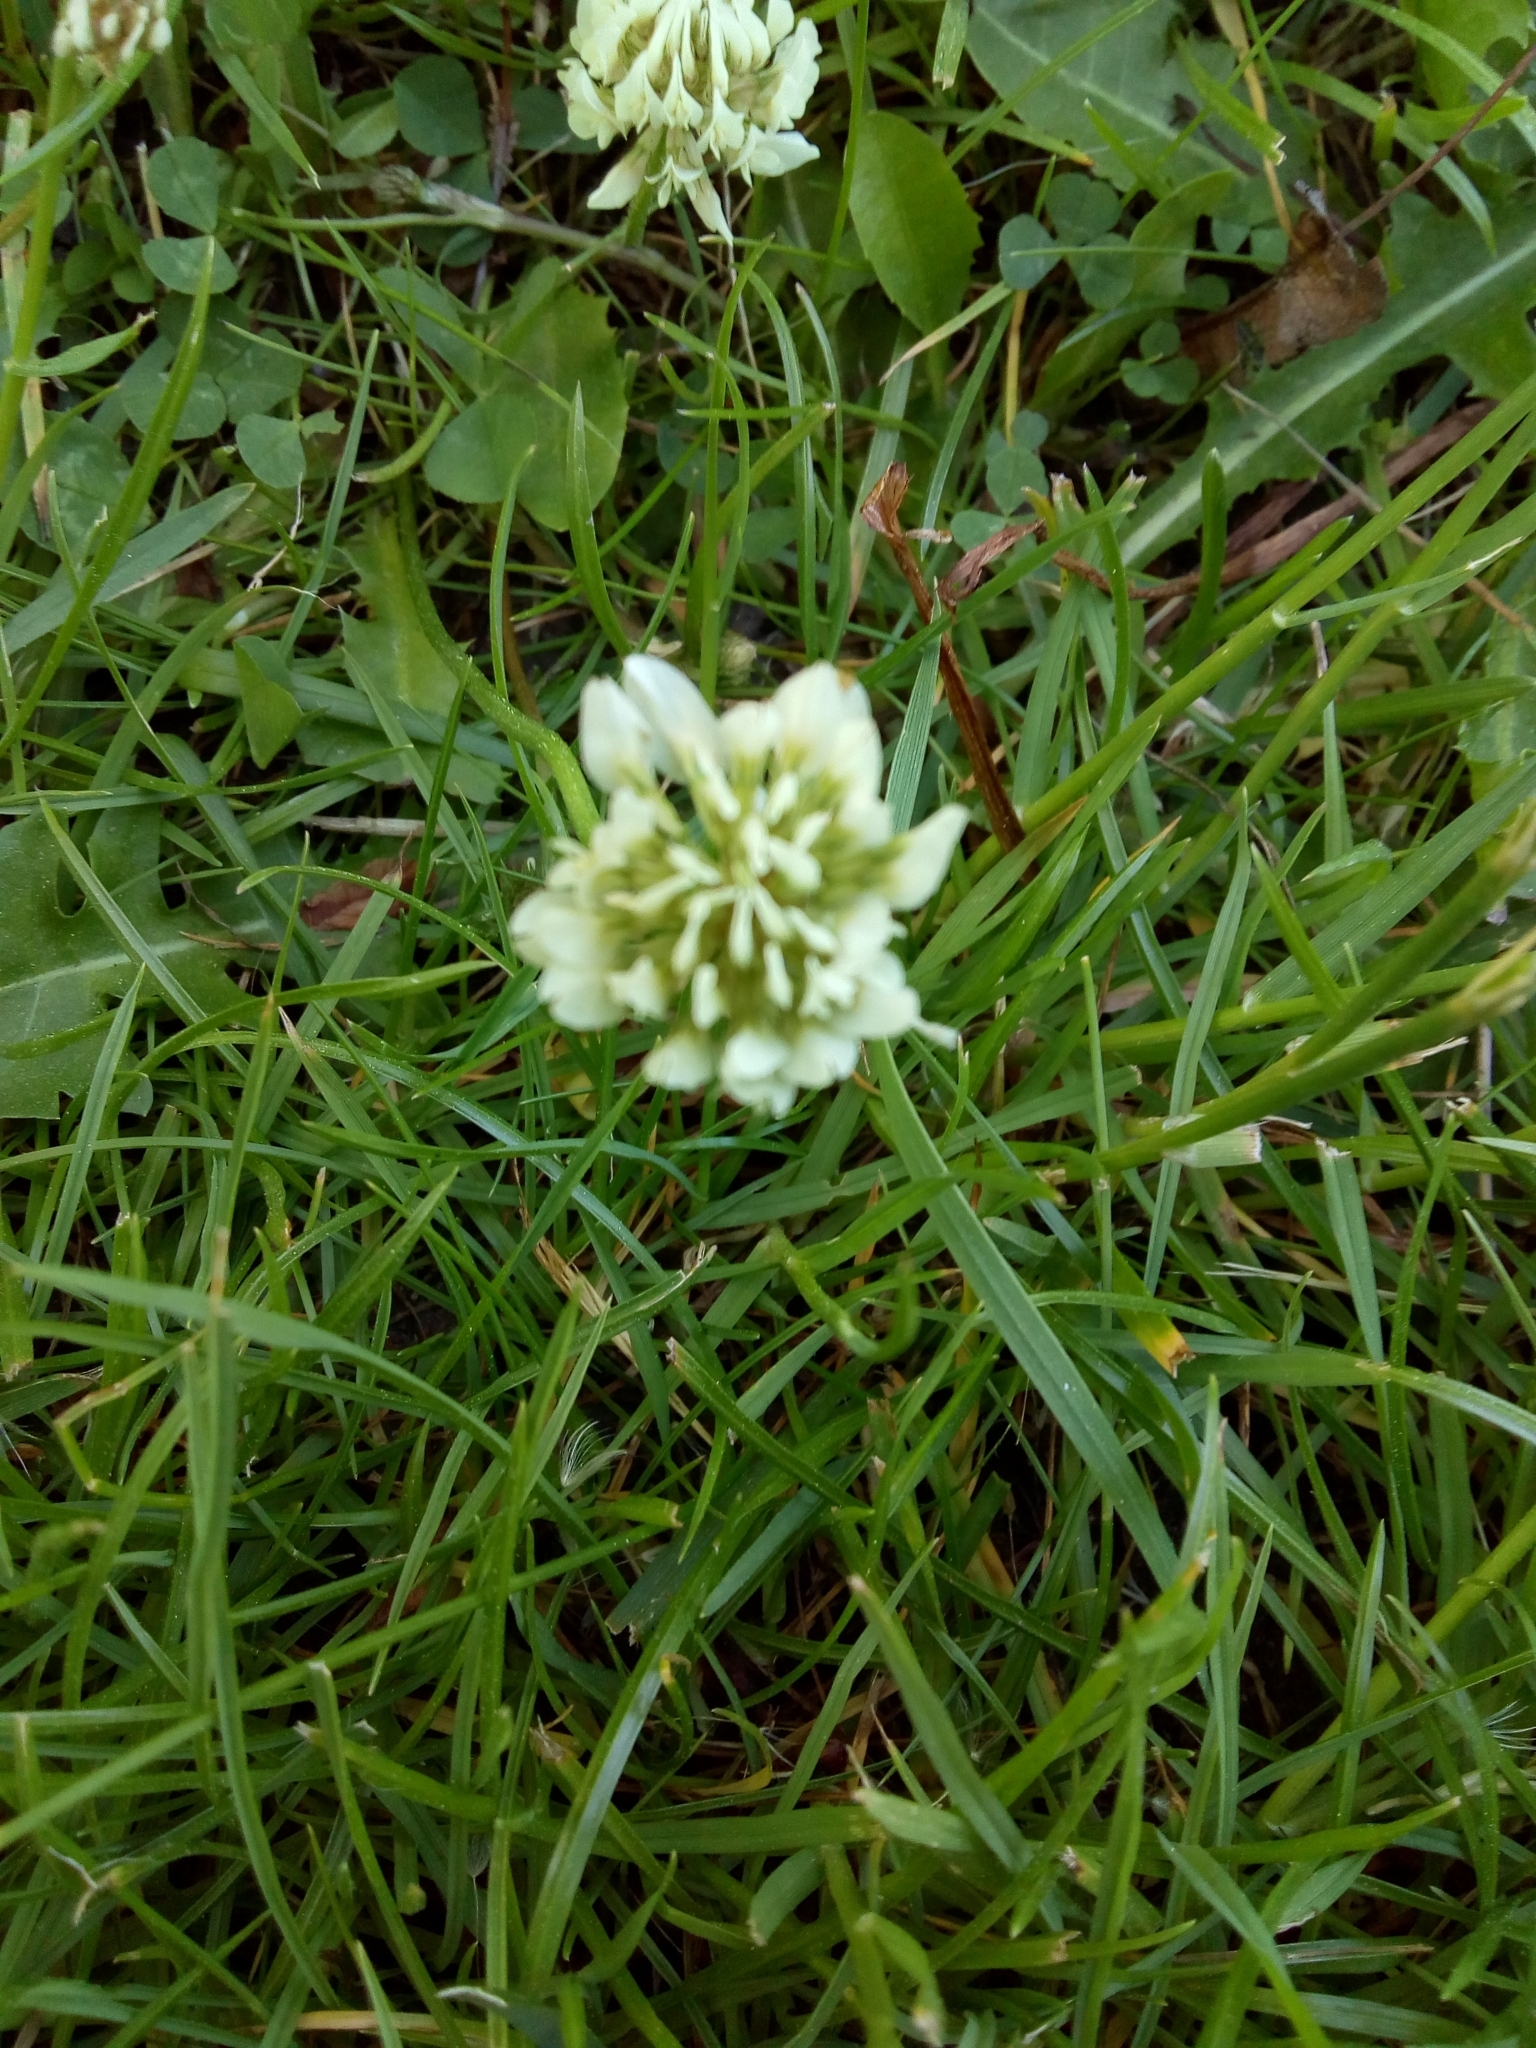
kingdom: Plantae
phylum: Tracheophyta
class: Magnoliopsida
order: Fabales
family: Fabaceae
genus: Trifolium
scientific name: Trifolium repens
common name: White clover
